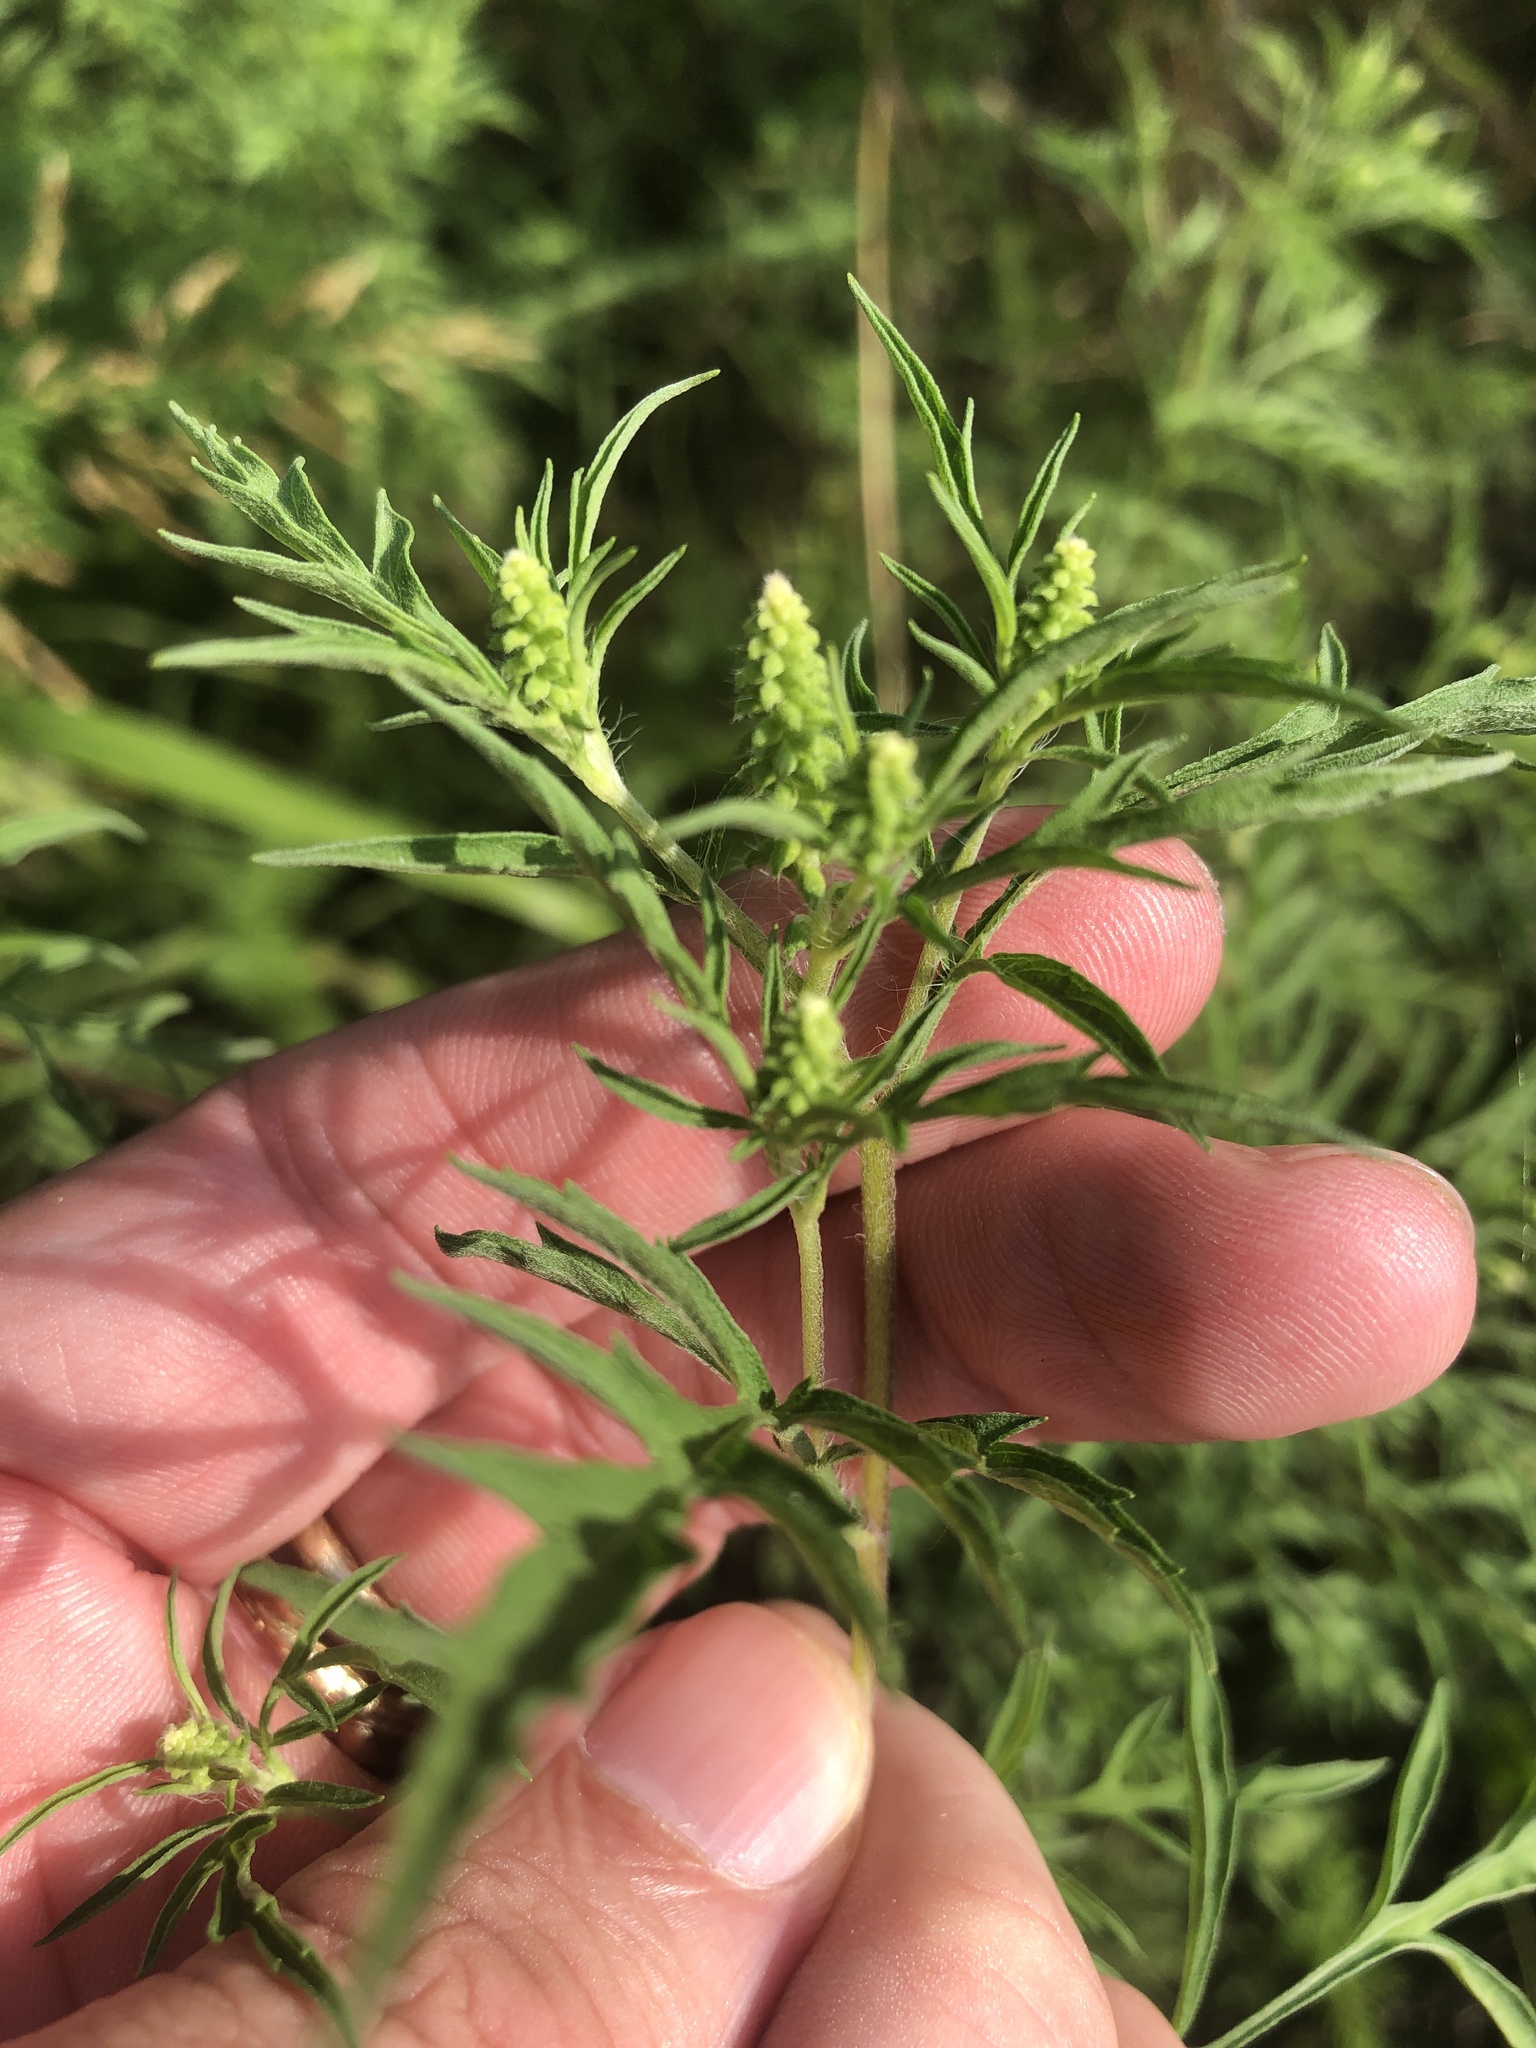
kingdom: Plantae
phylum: Tracheophyta
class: Magnoliopsida
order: Asterales
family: Asteraceae
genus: Ambrosia
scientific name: Ambrosia artemisiifolia
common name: Annual ragweed
